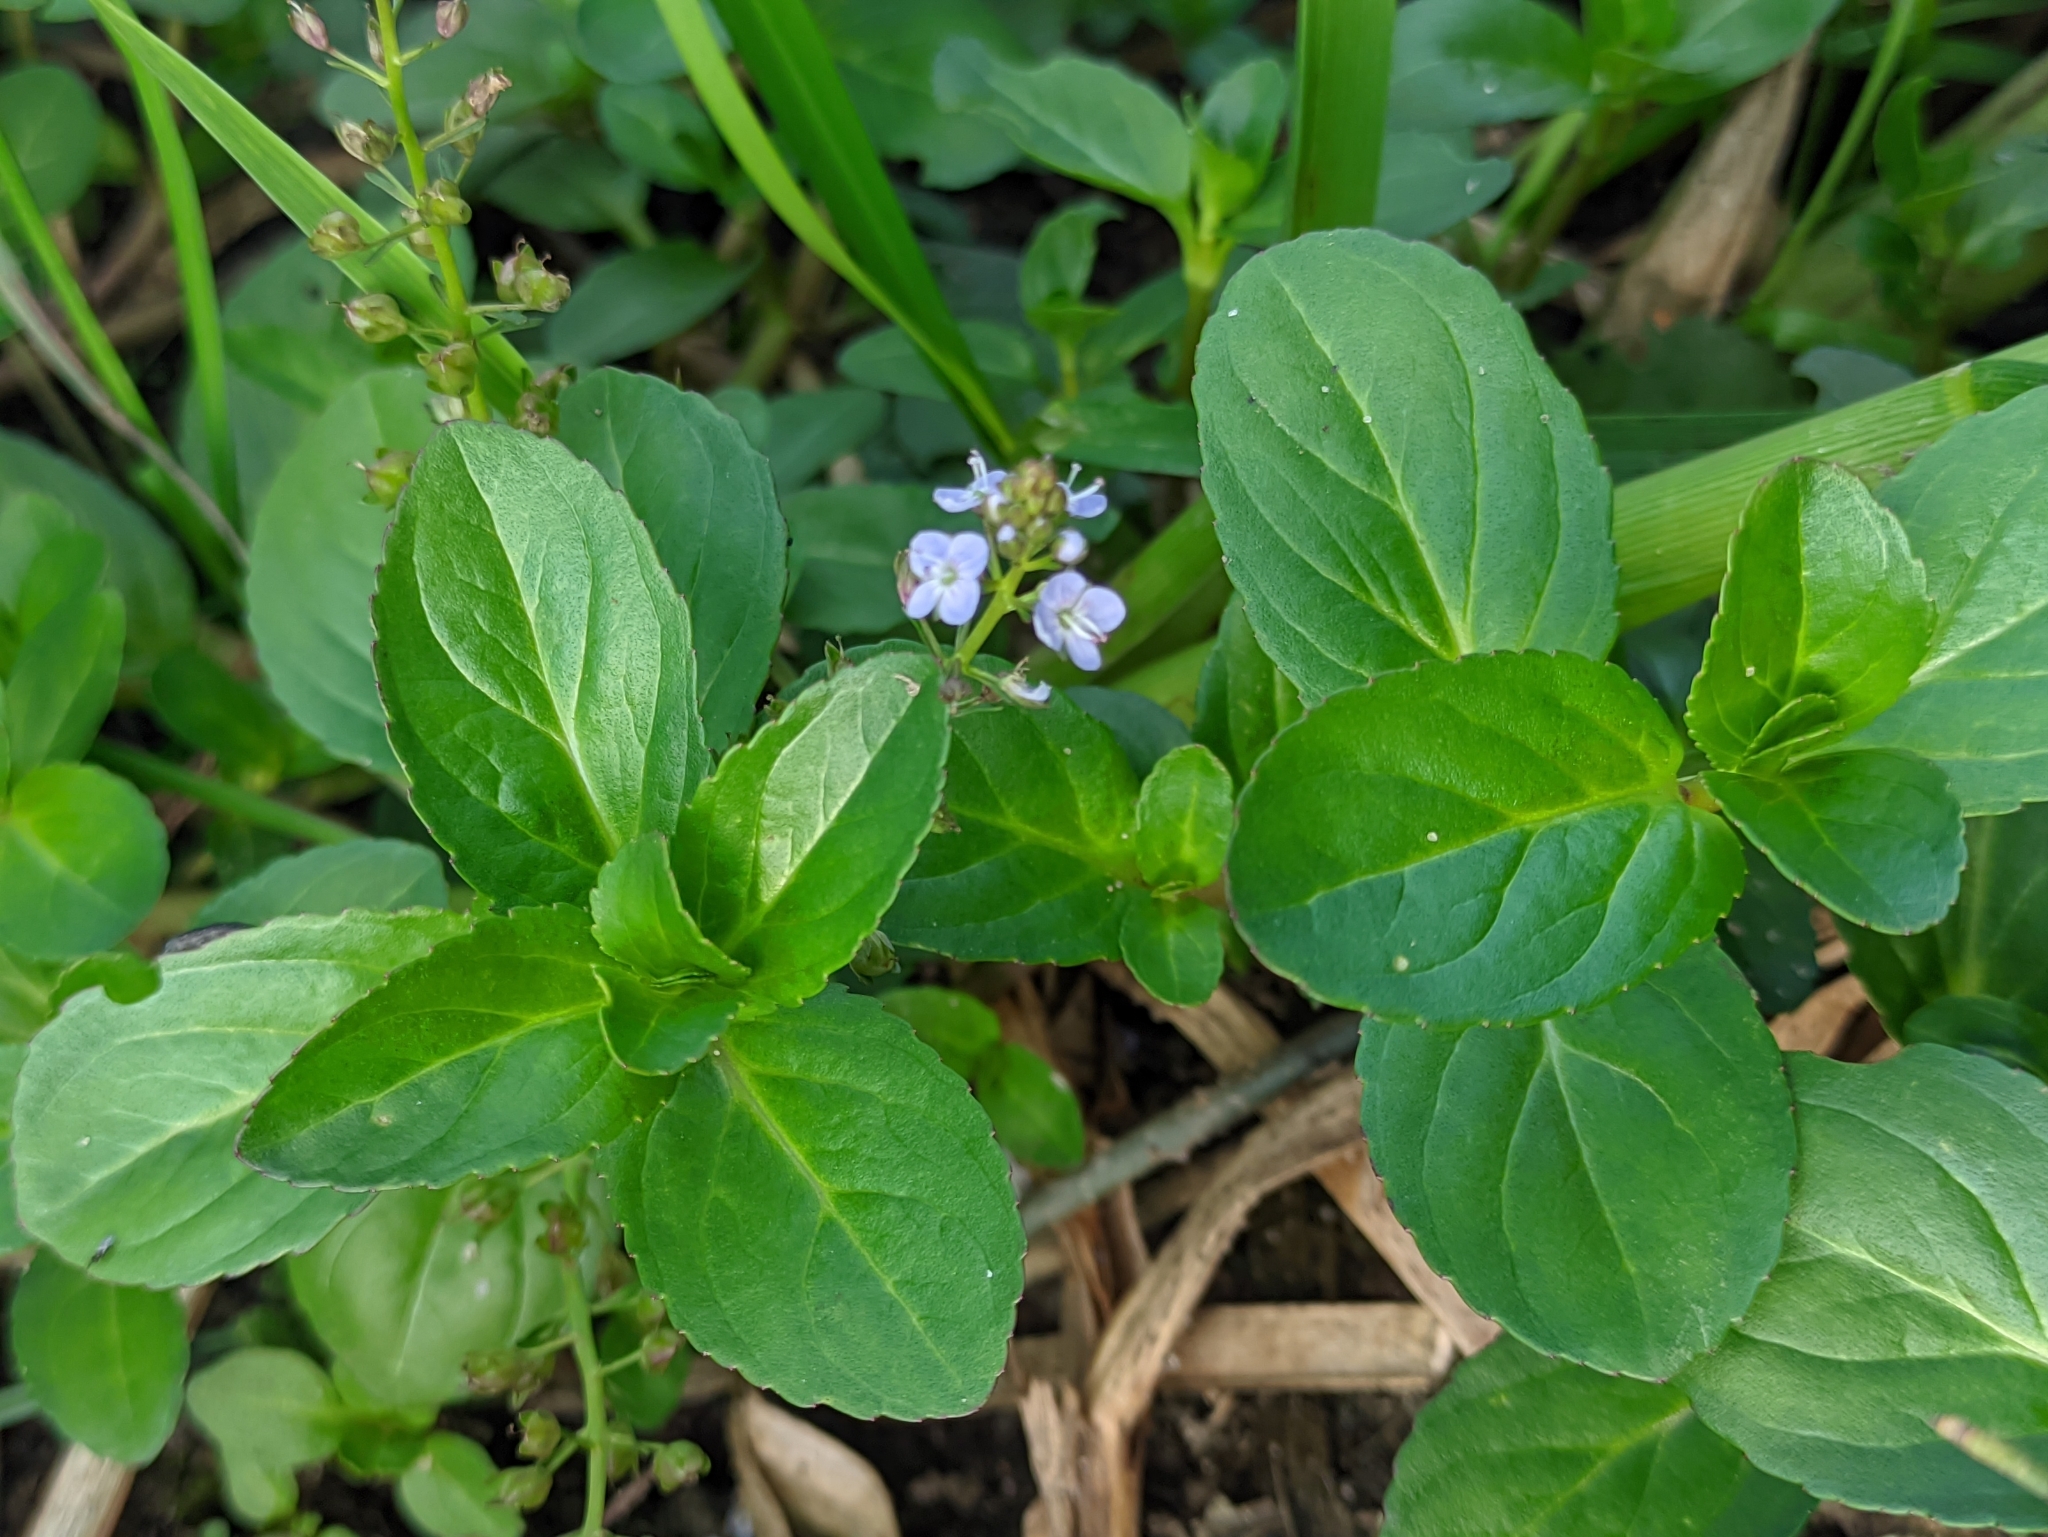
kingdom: Plantae
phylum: Tracheophyta
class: Magnoliopsida
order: Lamiales
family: Plantaginaceae
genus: Veronica
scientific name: Veronica beccabunga
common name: Brooklime
